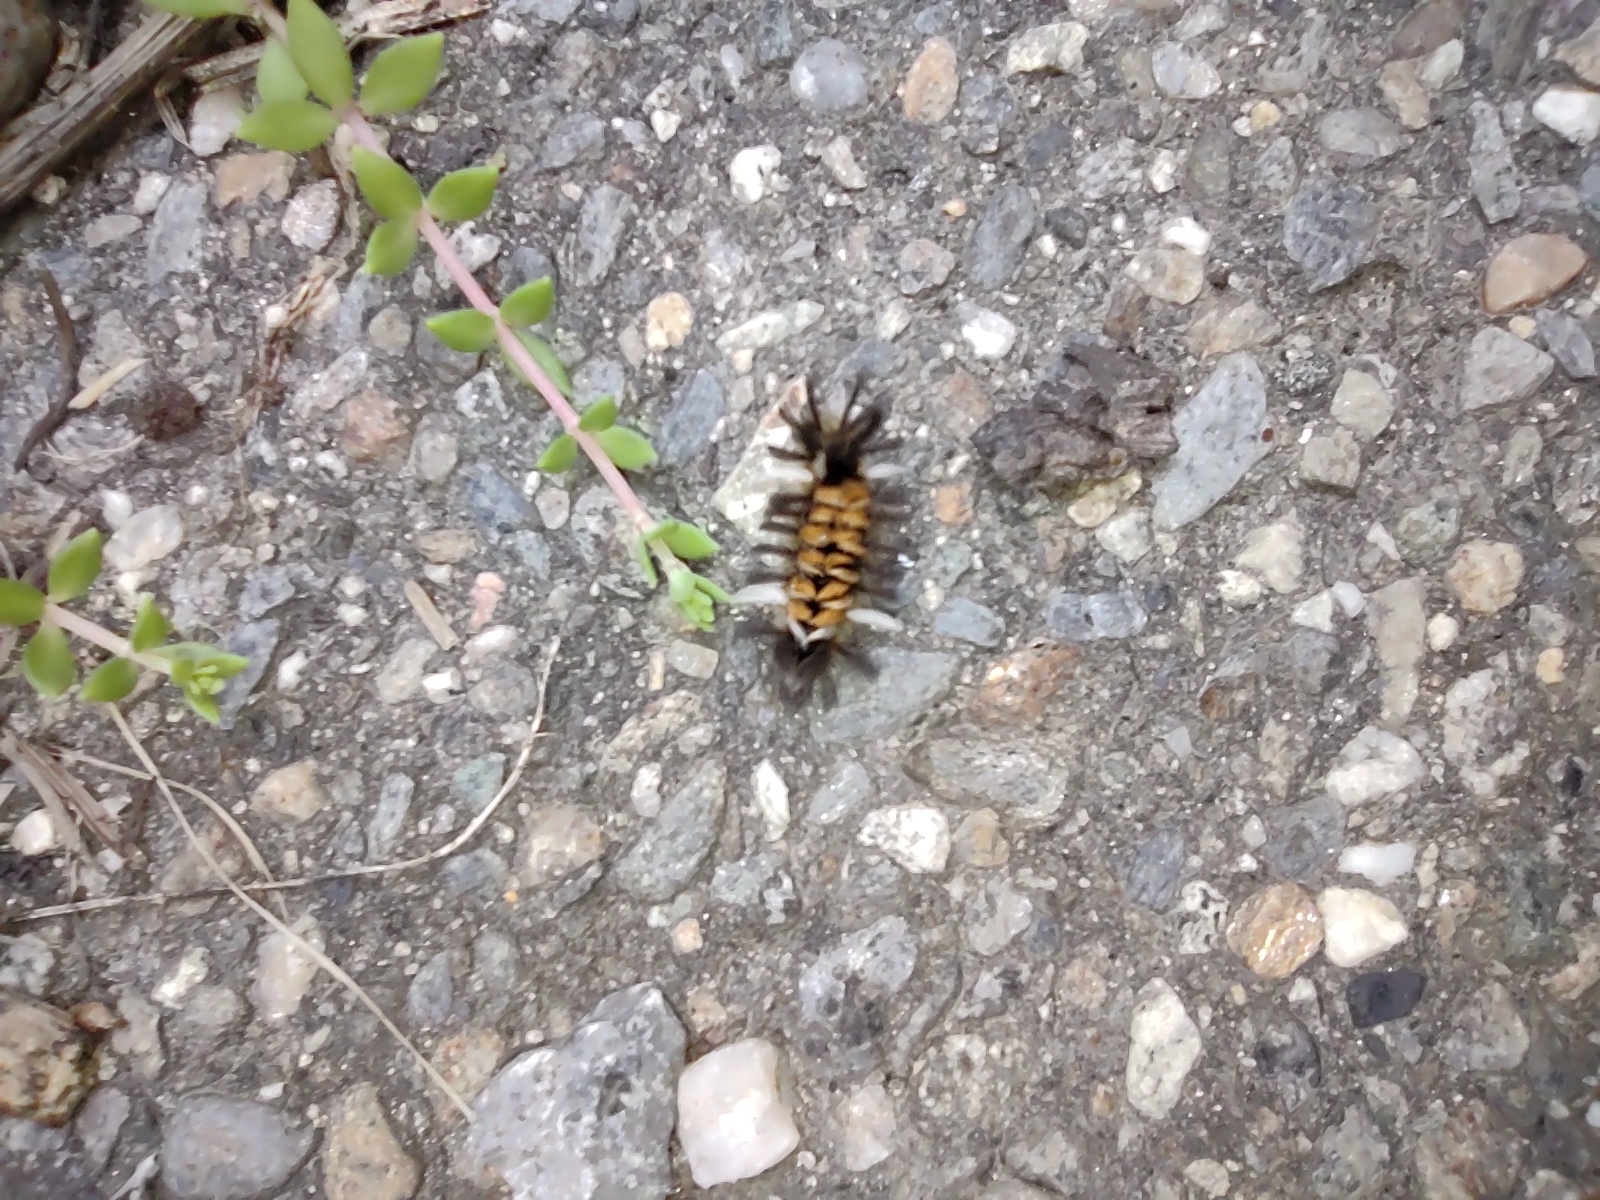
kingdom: Animalia
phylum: Arthropoda
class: Insecta
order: Lepidoptera
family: Erebidae
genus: Euchaetes
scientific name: Euchaetes egle
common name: Milkweed tussock moth
